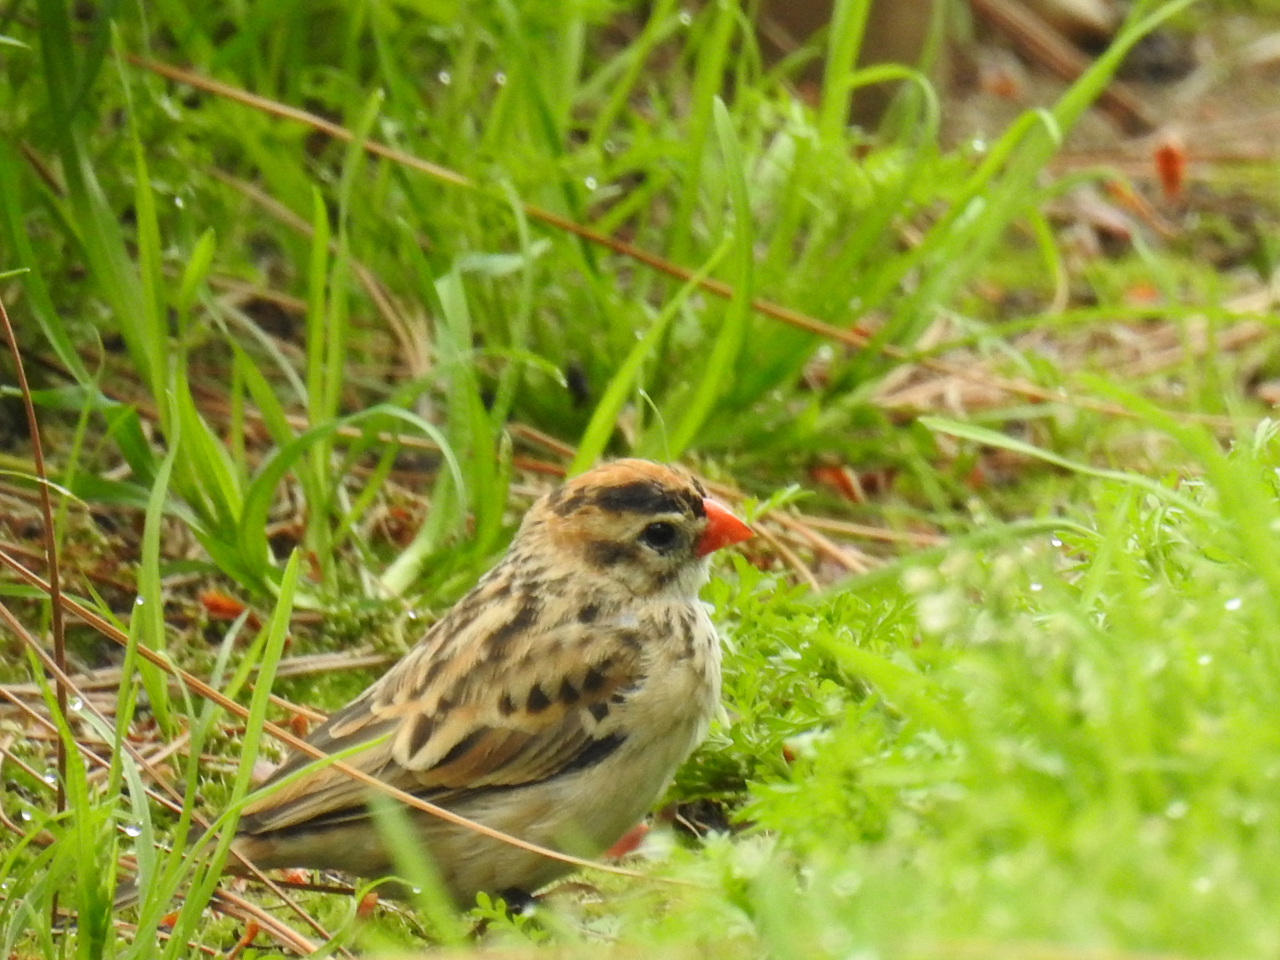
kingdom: Animalia
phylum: Chordata
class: Aves
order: Passeriformes
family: Viduidae
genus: Vidua
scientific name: Vidua macroura
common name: Pin-tailed whydah
